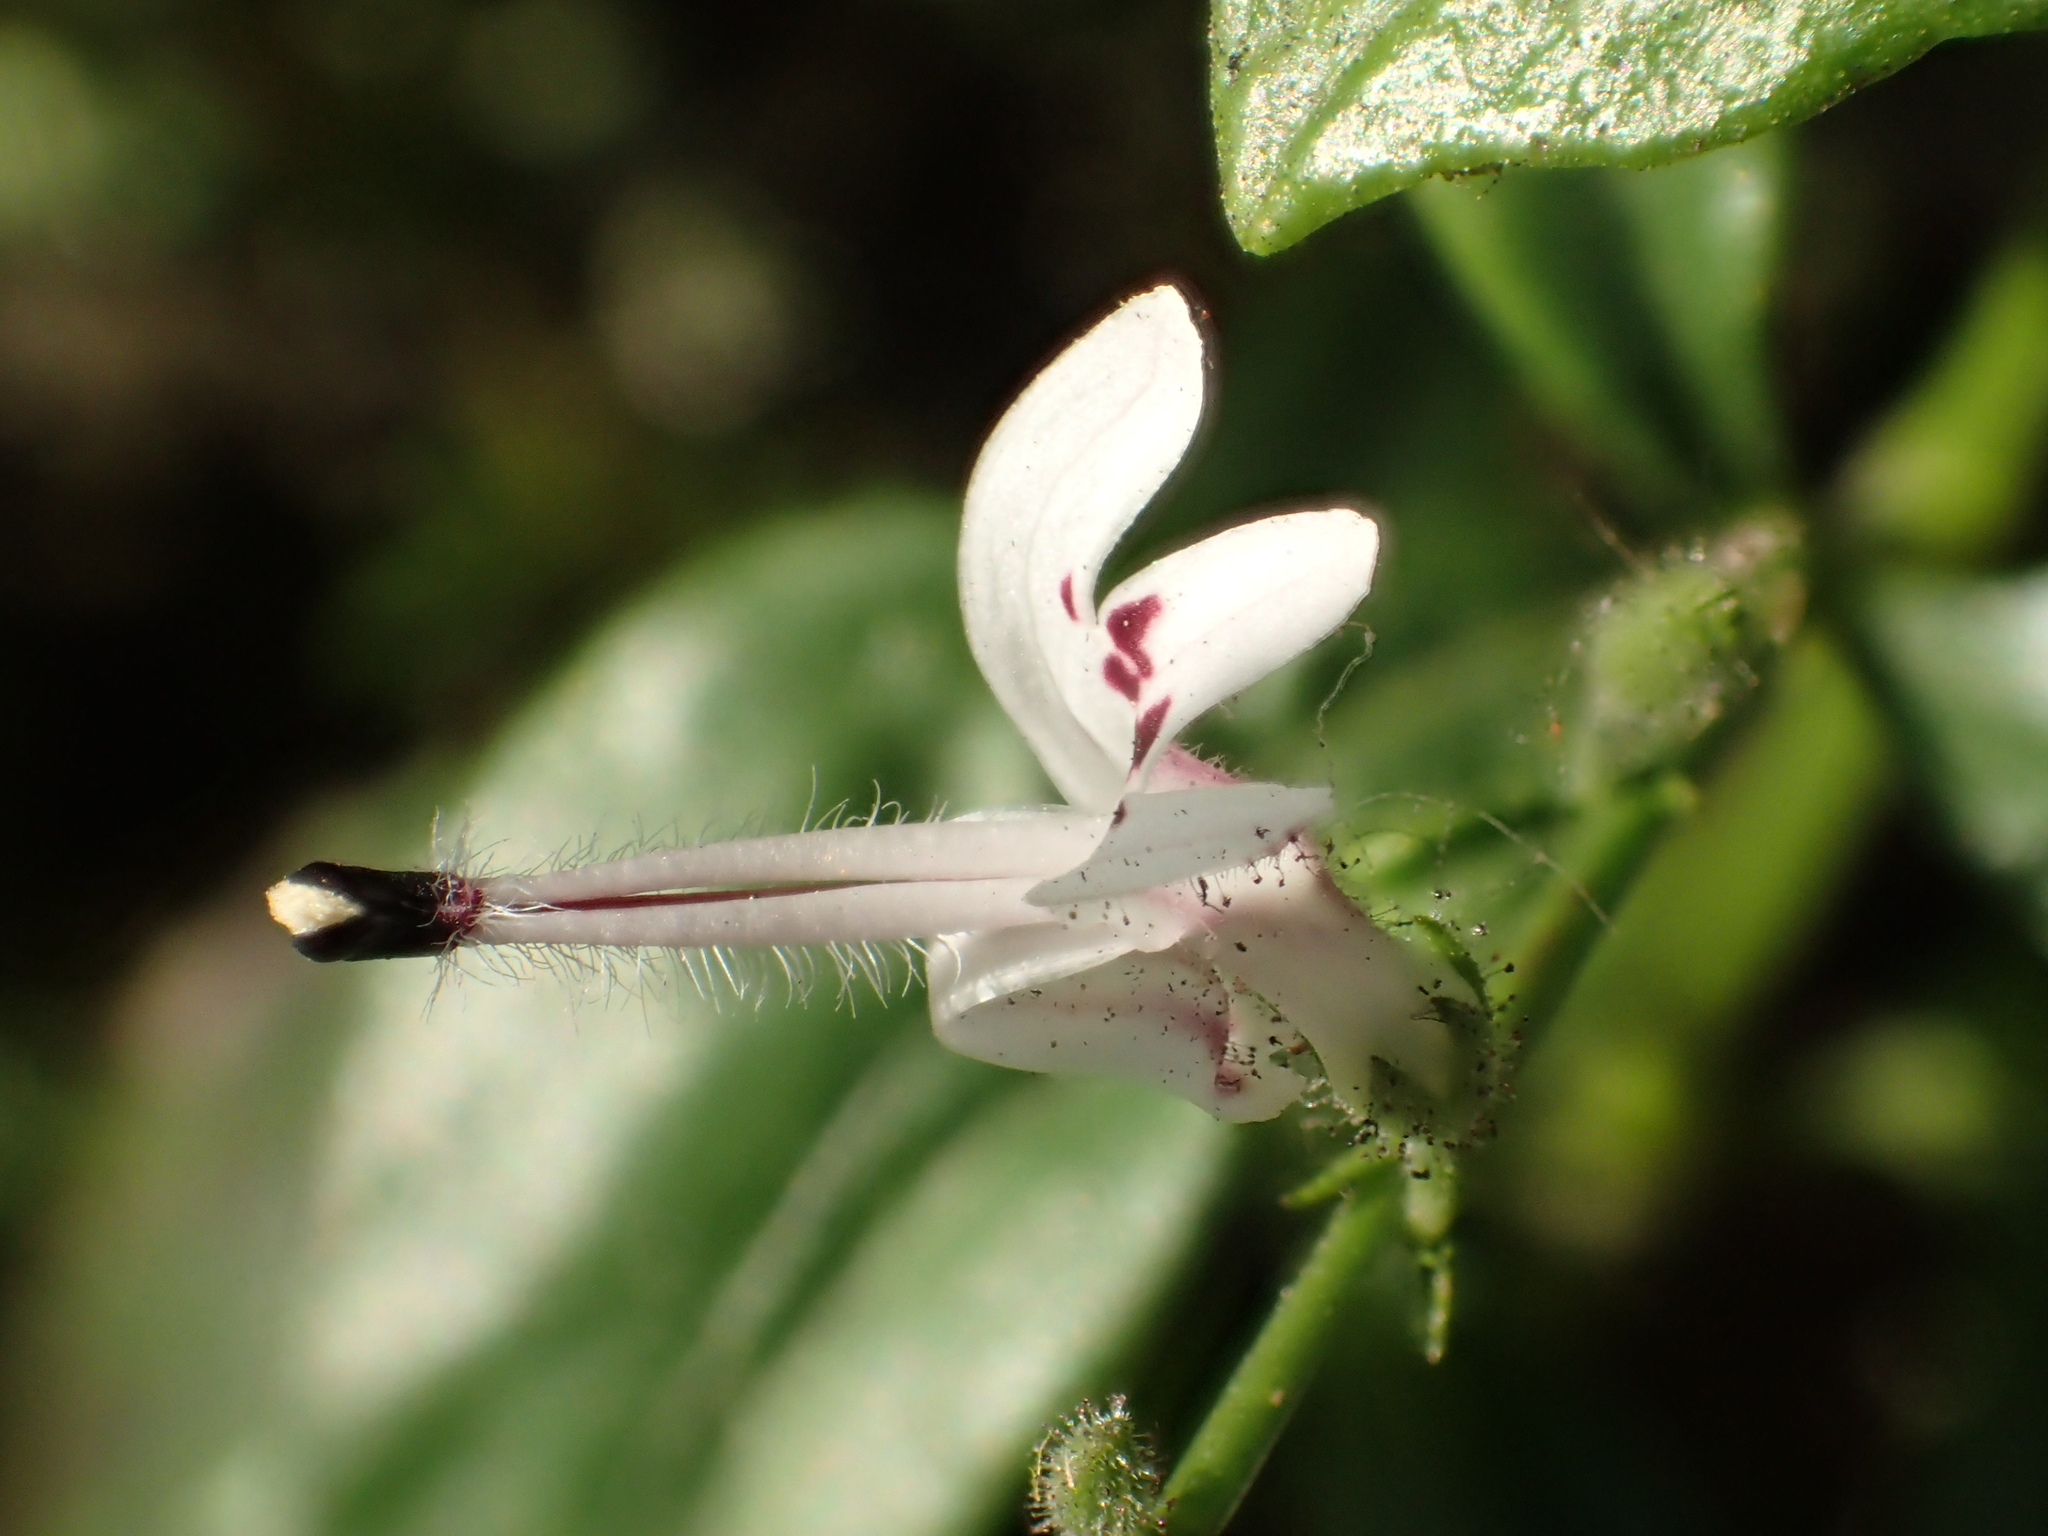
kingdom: Plantae
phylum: Tracheophyta
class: Magnoliopsida
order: Lamiales
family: Acanthaceae
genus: Andrographis
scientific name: Andrographis paniculata
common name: Green chireta
